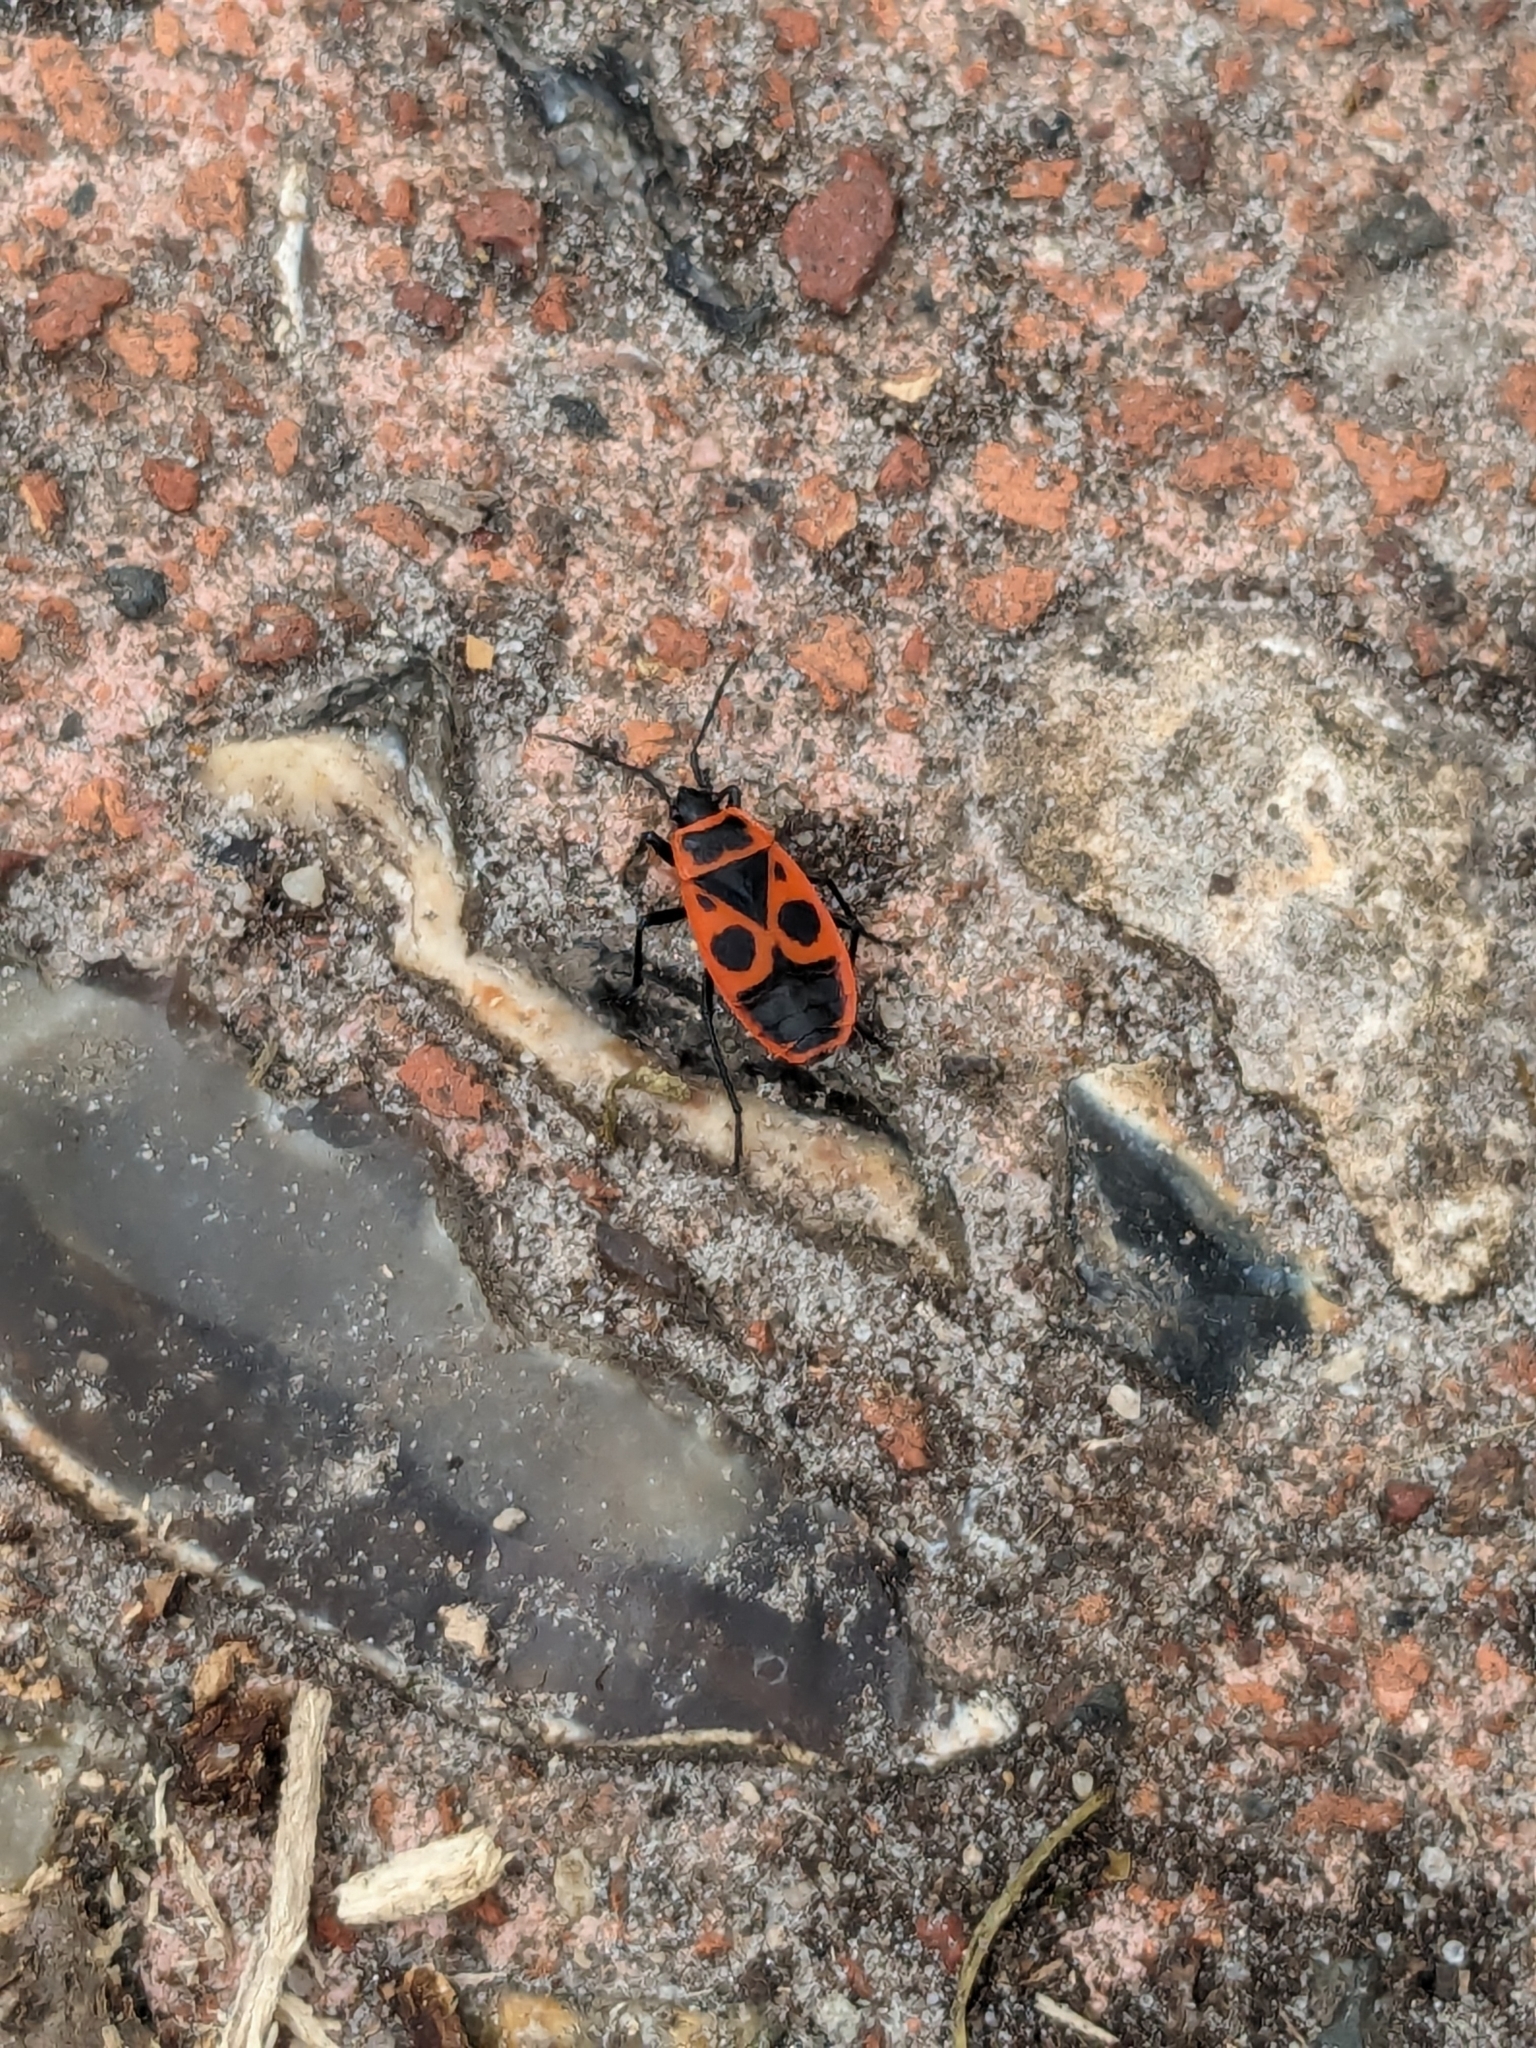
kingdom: Animalia
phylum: Arthropoda
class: Insecta
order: Hemiptera
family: Pyrrhocoridae
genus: Pyrrhocoris
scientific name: Pyrrhocoris apterus
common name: Firebug
